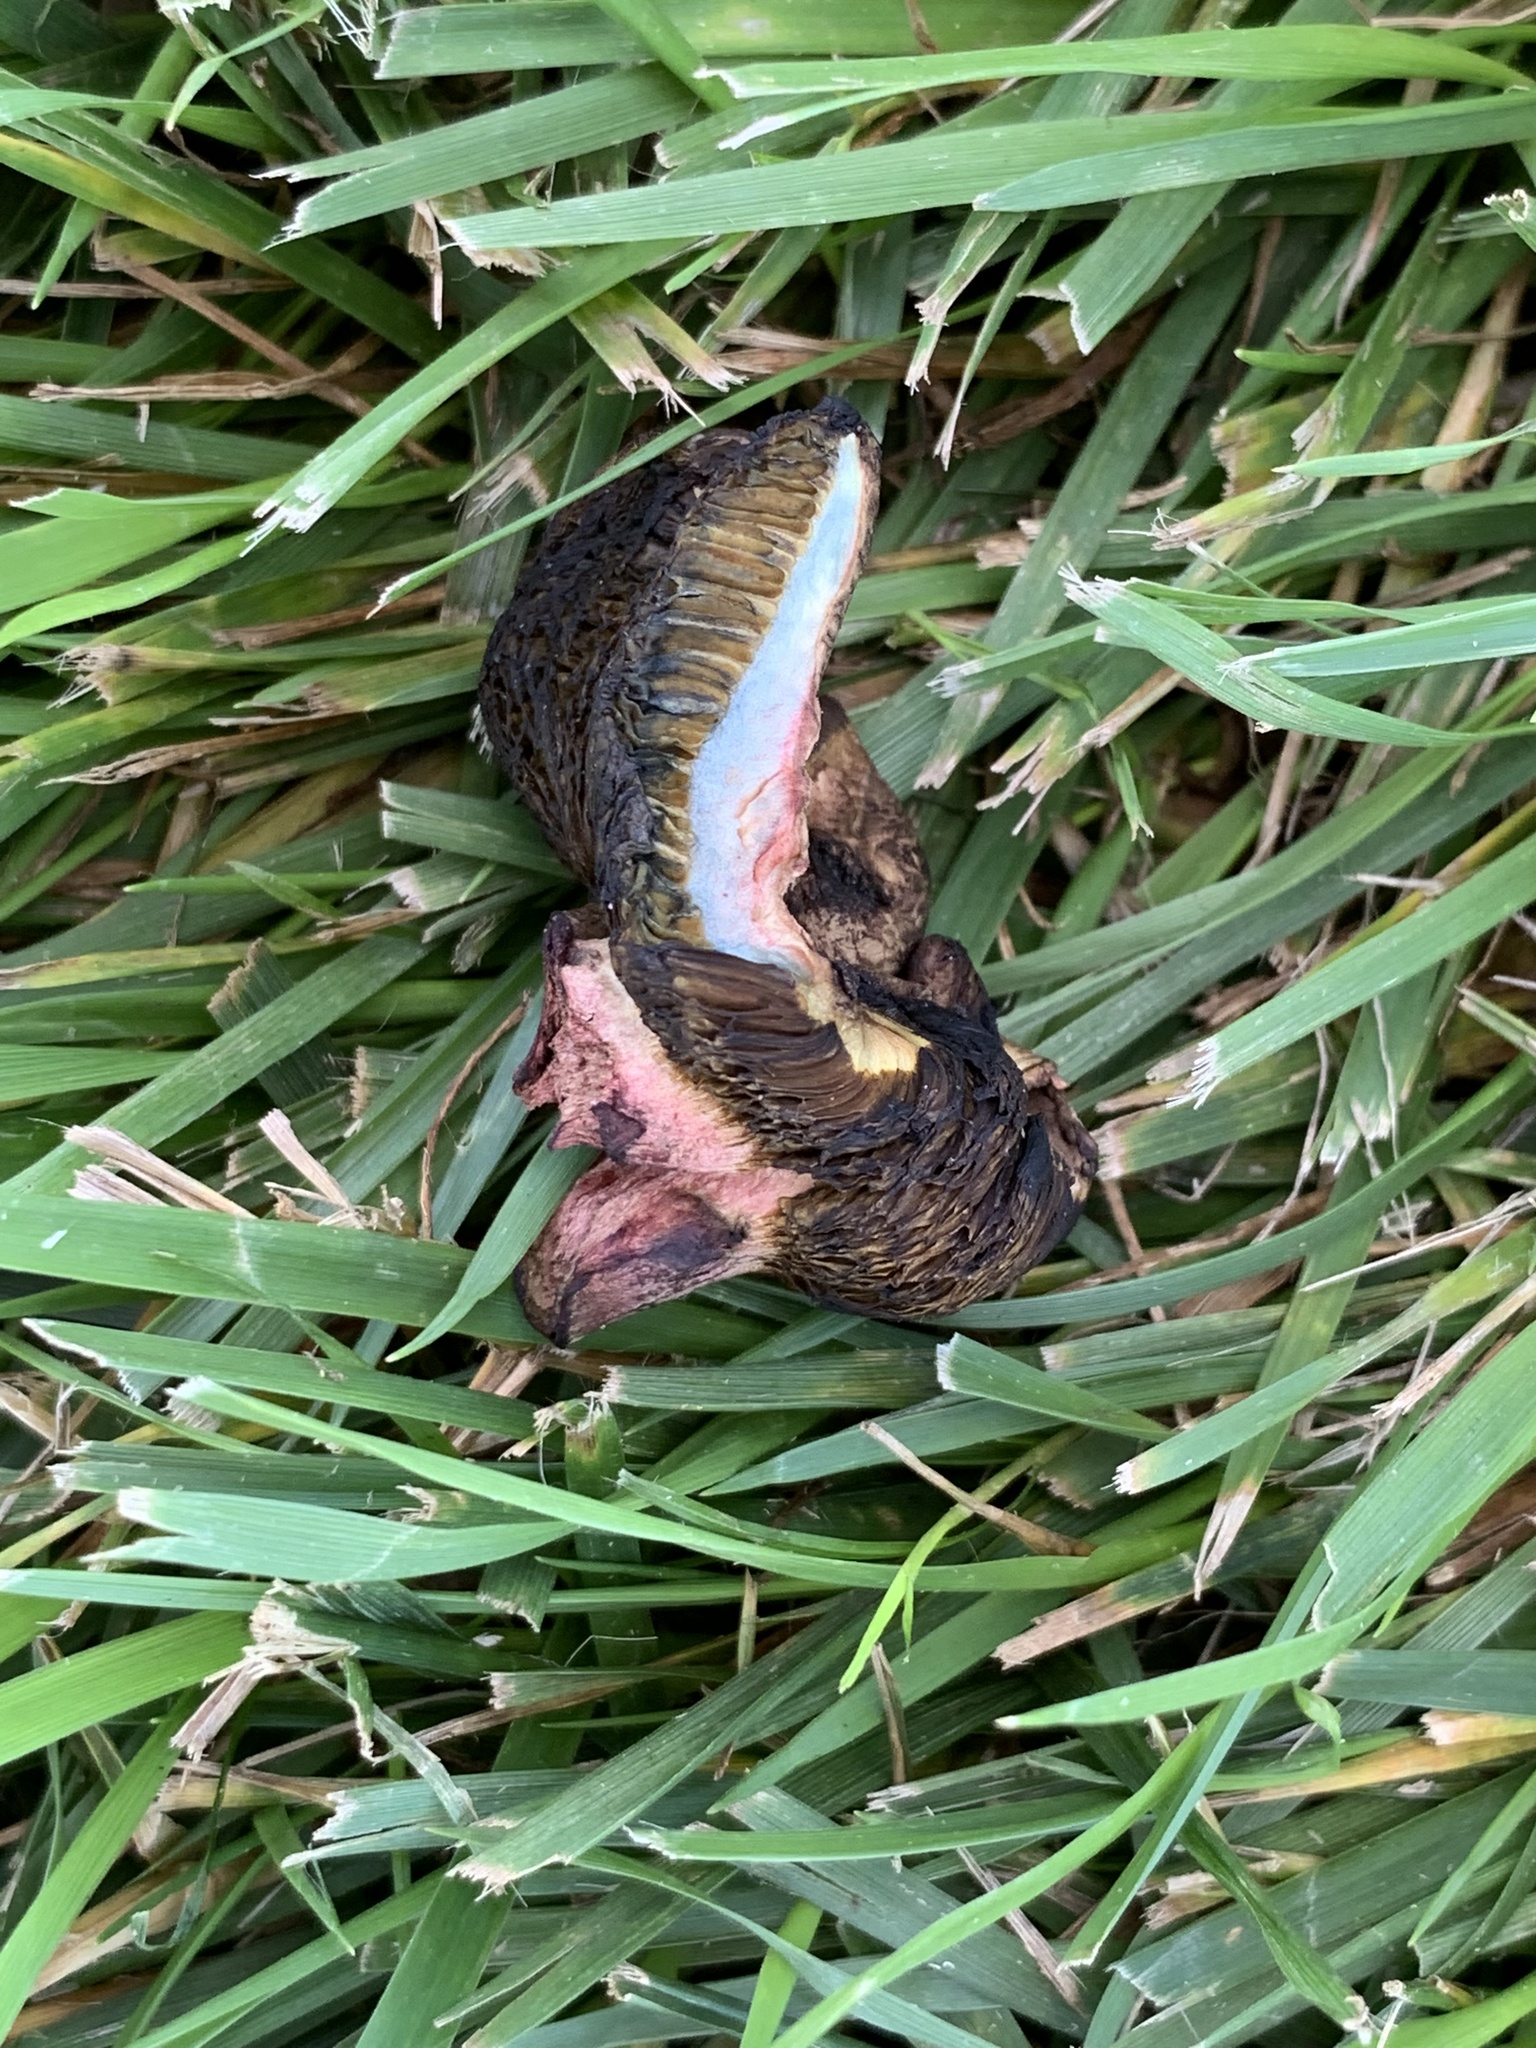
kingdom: Fungi
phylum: Basidiomycota
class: Agaricomycetes
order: Boletales
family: Boletaceae
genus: Xerocomellus
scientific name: Xerocomellus chrysenteron
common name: Red-cracking bolete
